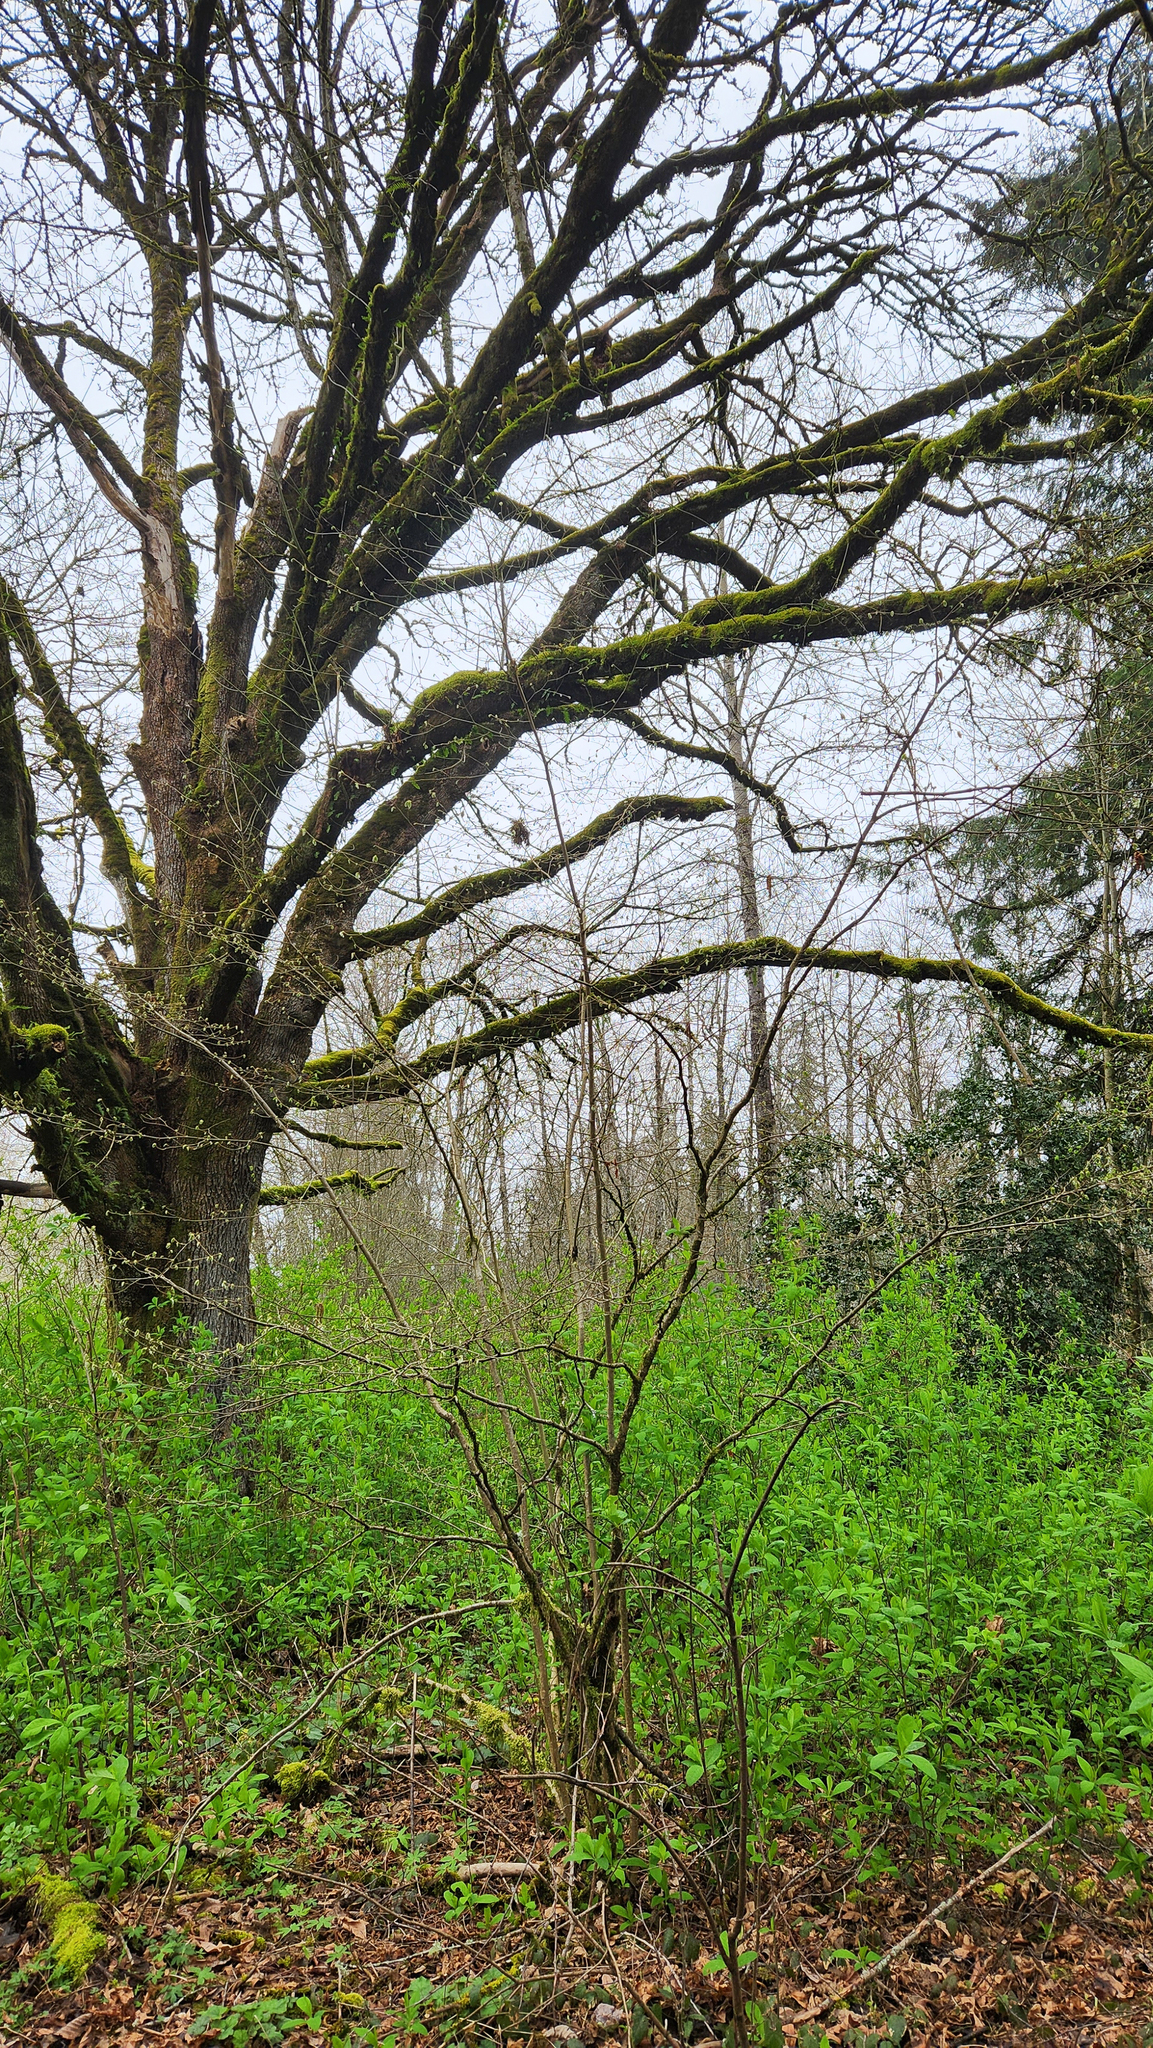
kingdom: Plantae
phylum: Tracheophyta
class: Magnoliopsida
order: Sapindales
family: Sapindaceae
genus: Acer
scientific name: Acer macrophyllum
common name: Oregon maple
